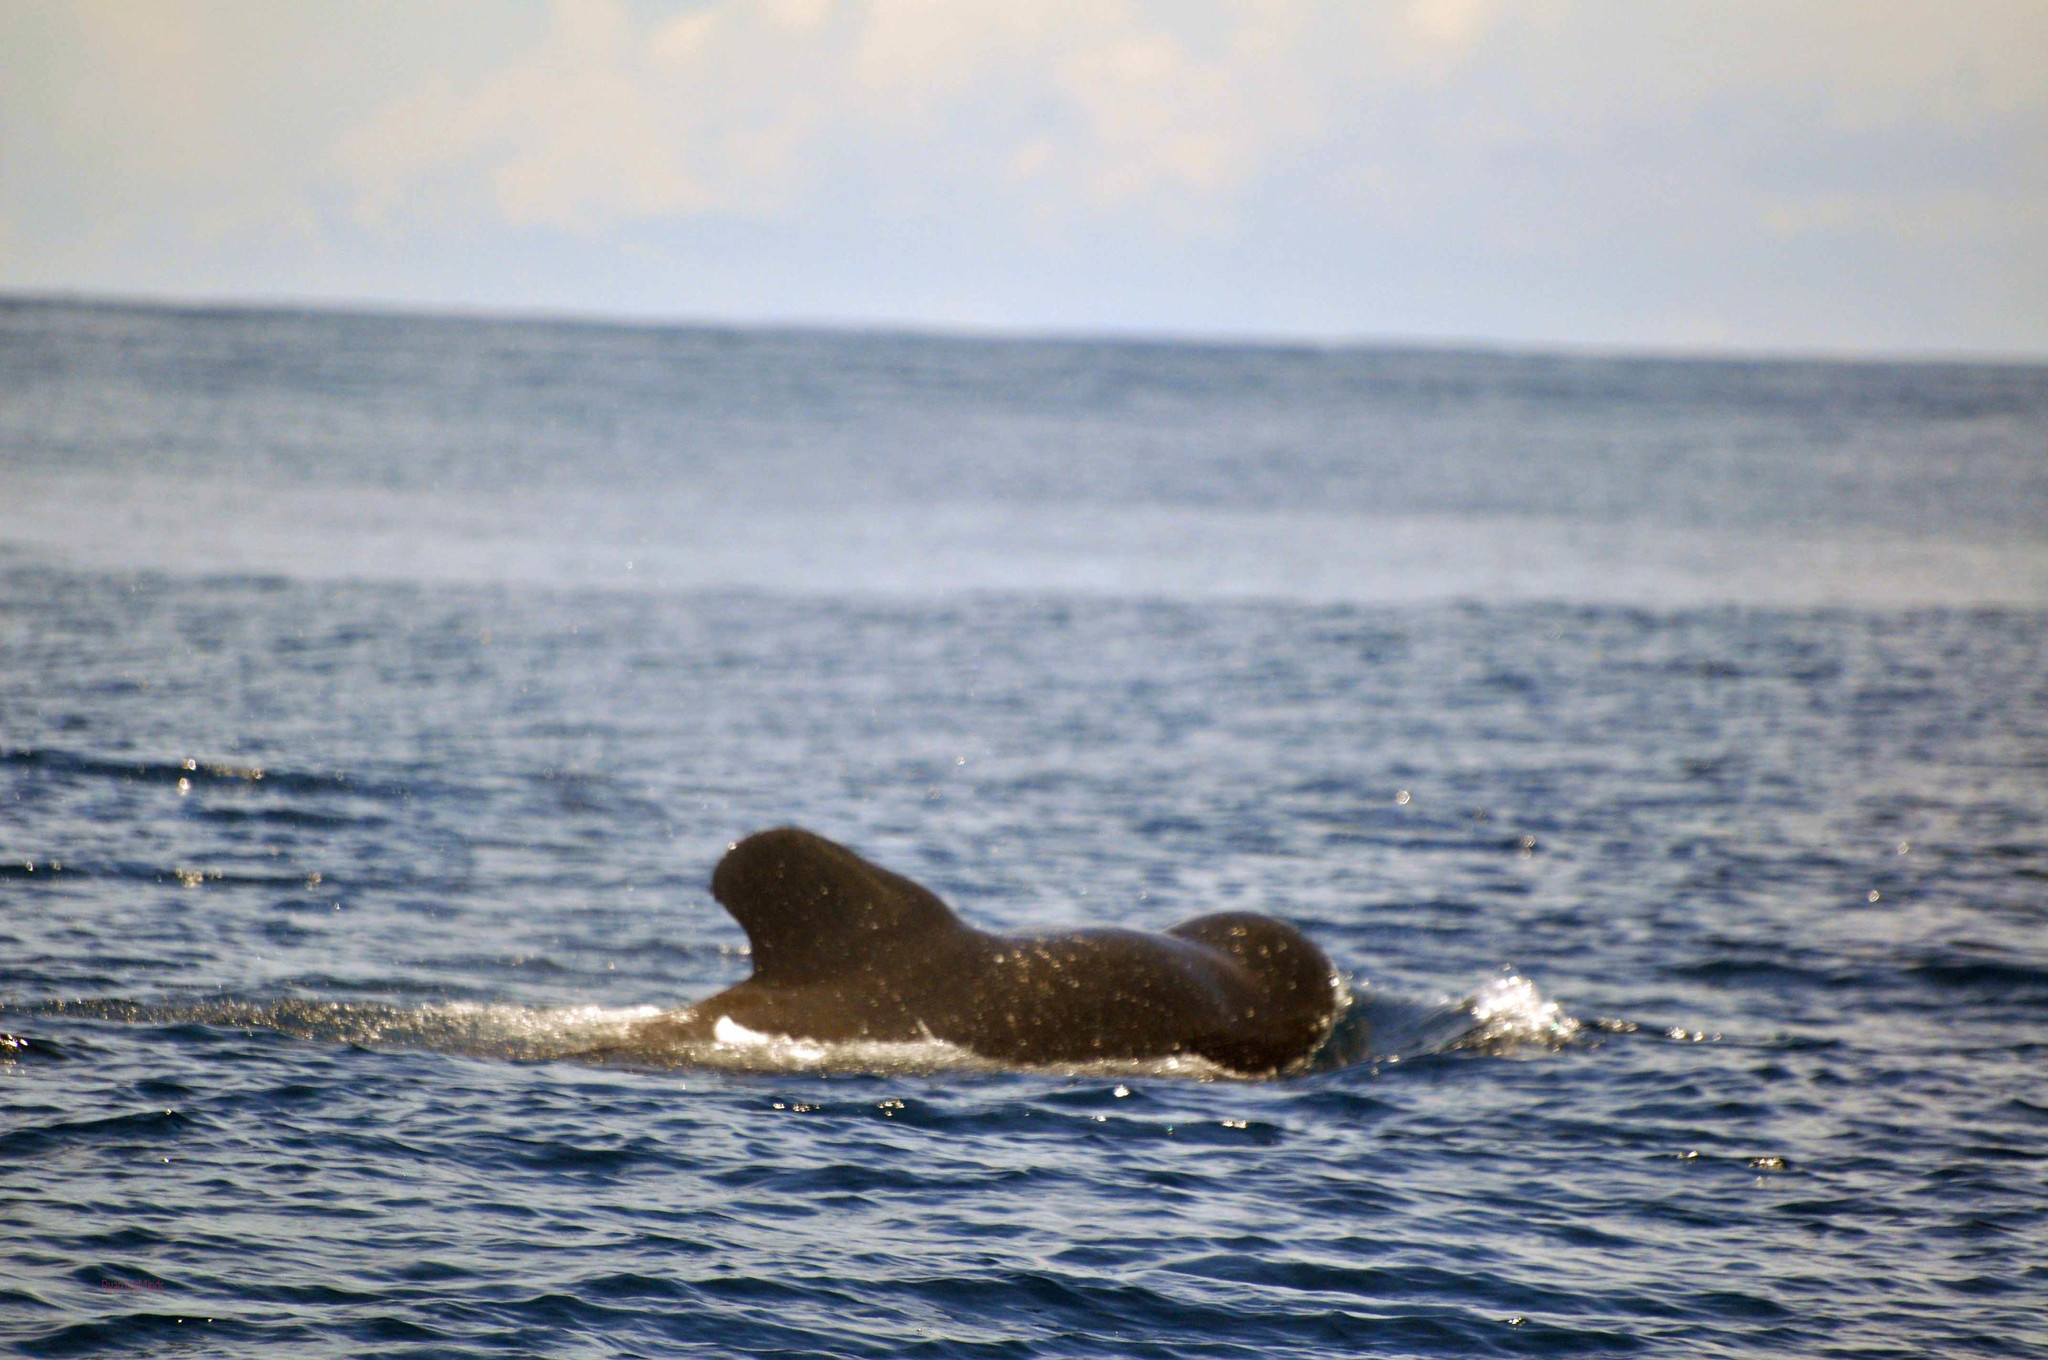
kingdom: Animalia
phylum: Chordata
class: Mammalia
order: Cetacea
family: Delphinidae
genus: Globicephala
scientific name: Globicephala macrorhynchus
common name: Short-finned pilot whale
